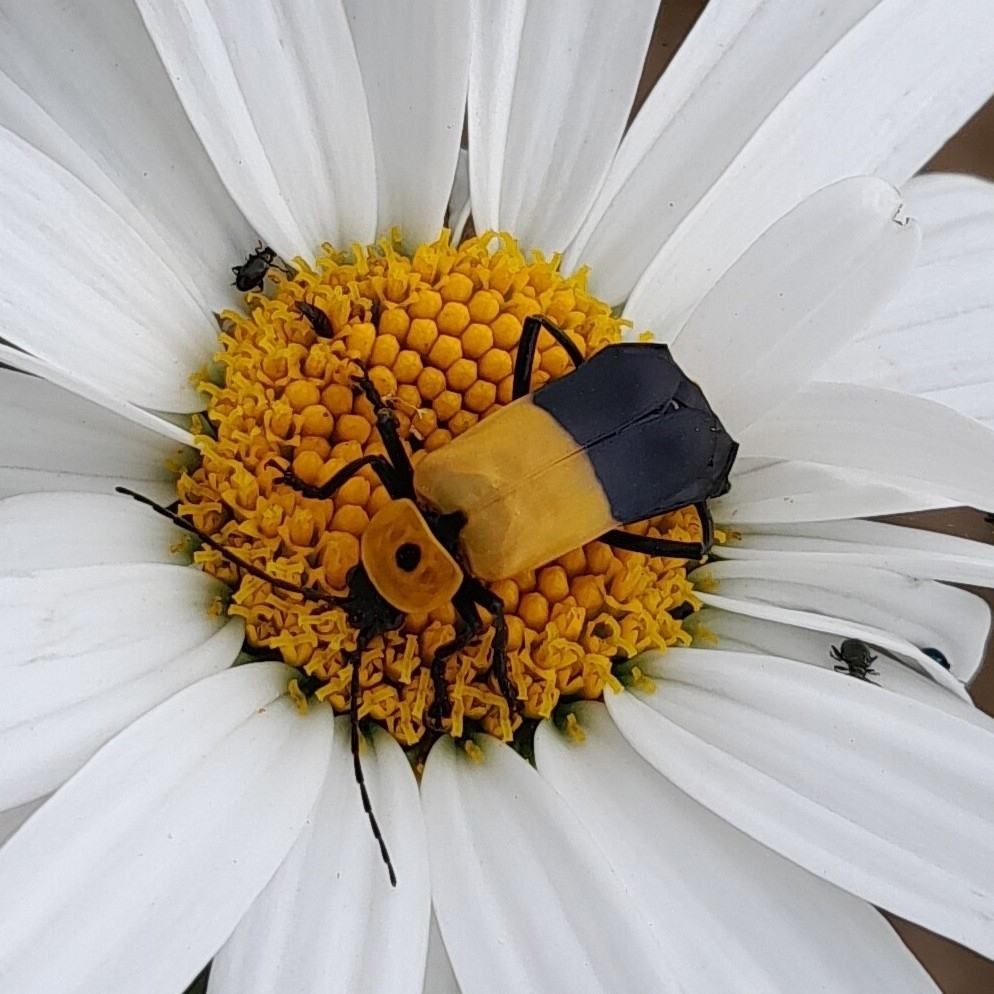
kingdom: Animalia
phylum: Arthropoda
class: Insecta
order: Coleoptera
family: Cantharidae
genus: Chauliognathus
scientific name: Chauliognathus
